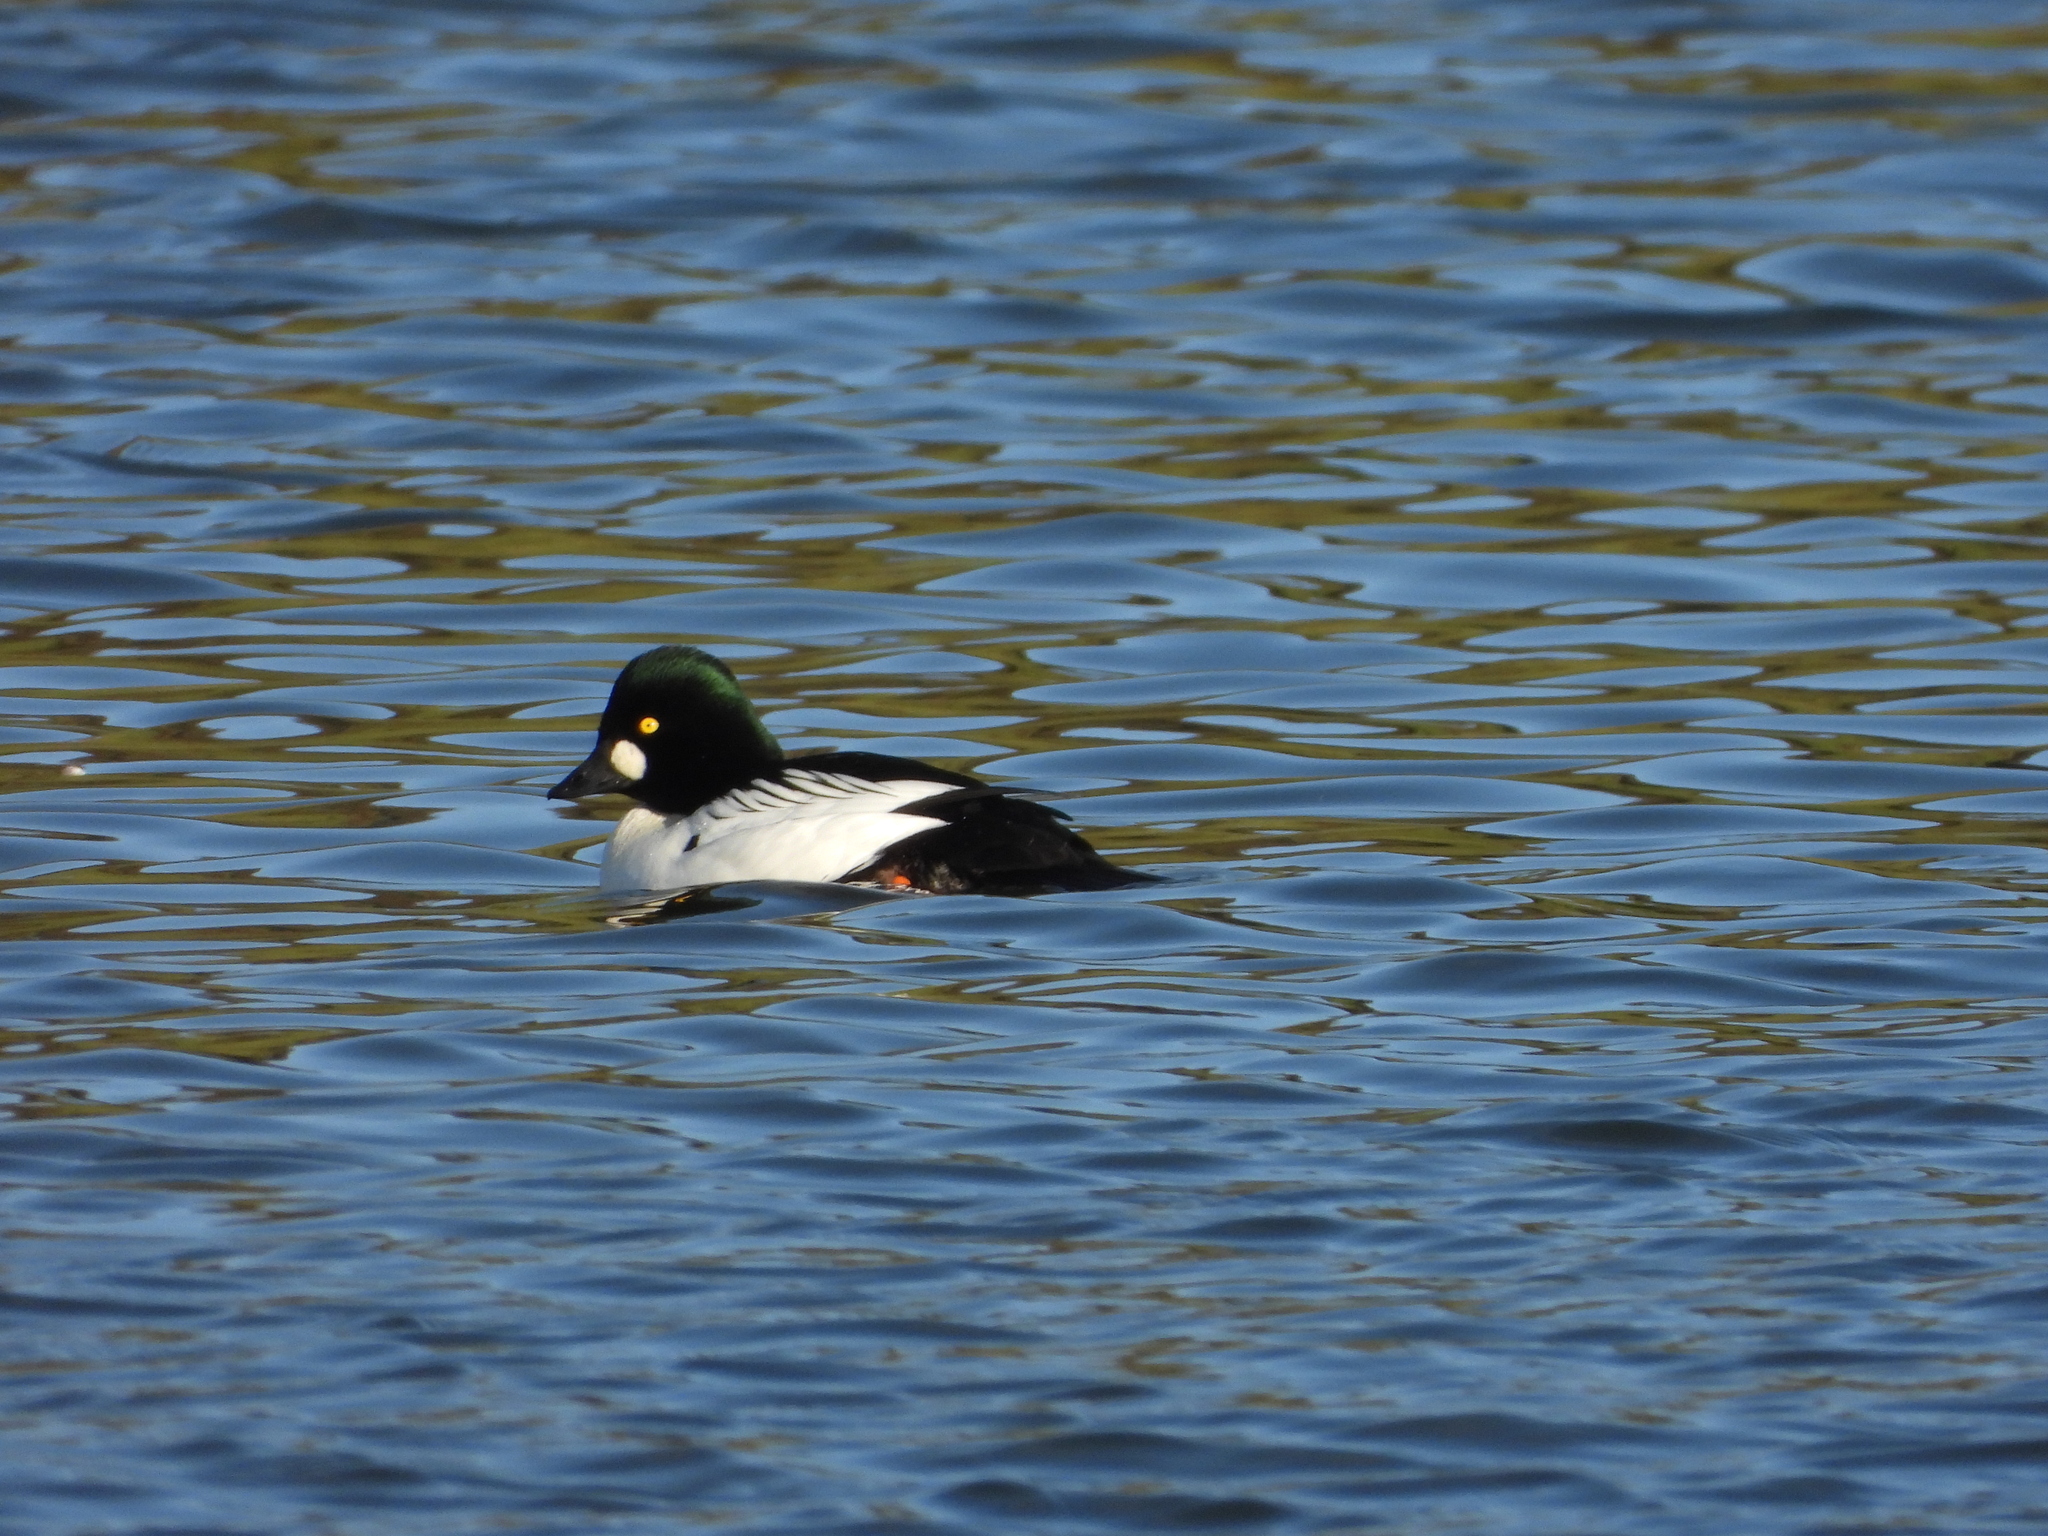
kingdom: Animalia
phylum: Chordata
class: Aves
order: Anseriformes
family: Anatidae
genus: Bucephala
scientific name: Bucephala clangula
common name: Common goldeneye
